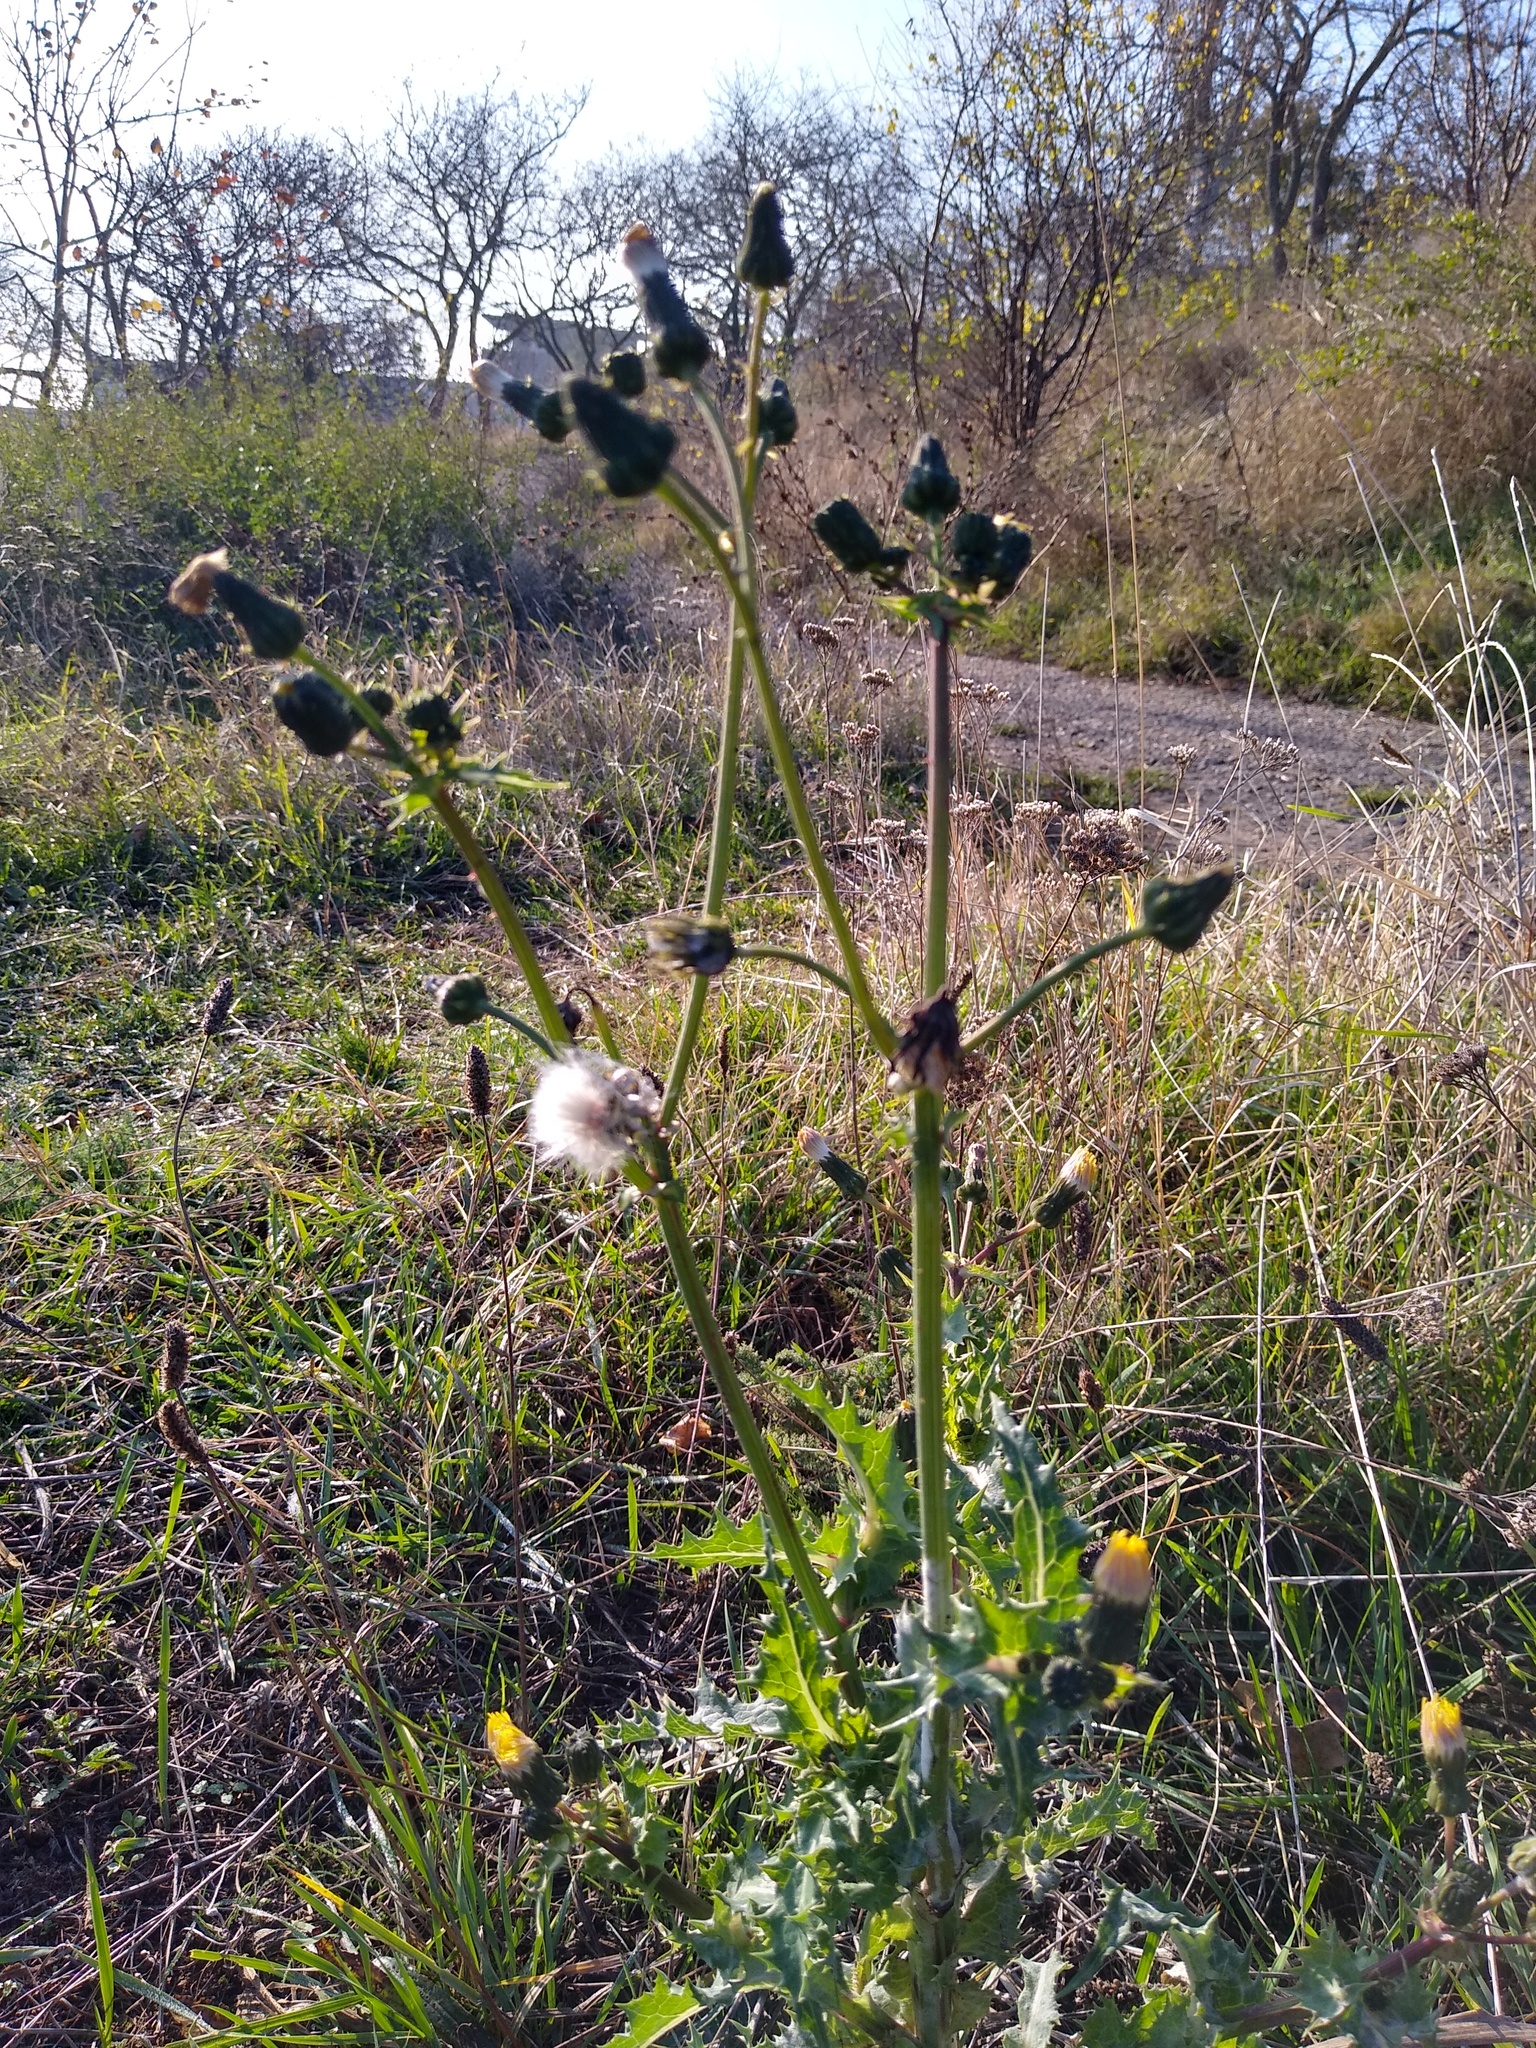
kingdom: Plantae
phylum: Tracheophyta
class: Magnoliopsida
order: Asterales
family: Asteraceae
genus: Sonchus
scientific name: Sonchus asper
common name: Prickly sow-thistle
